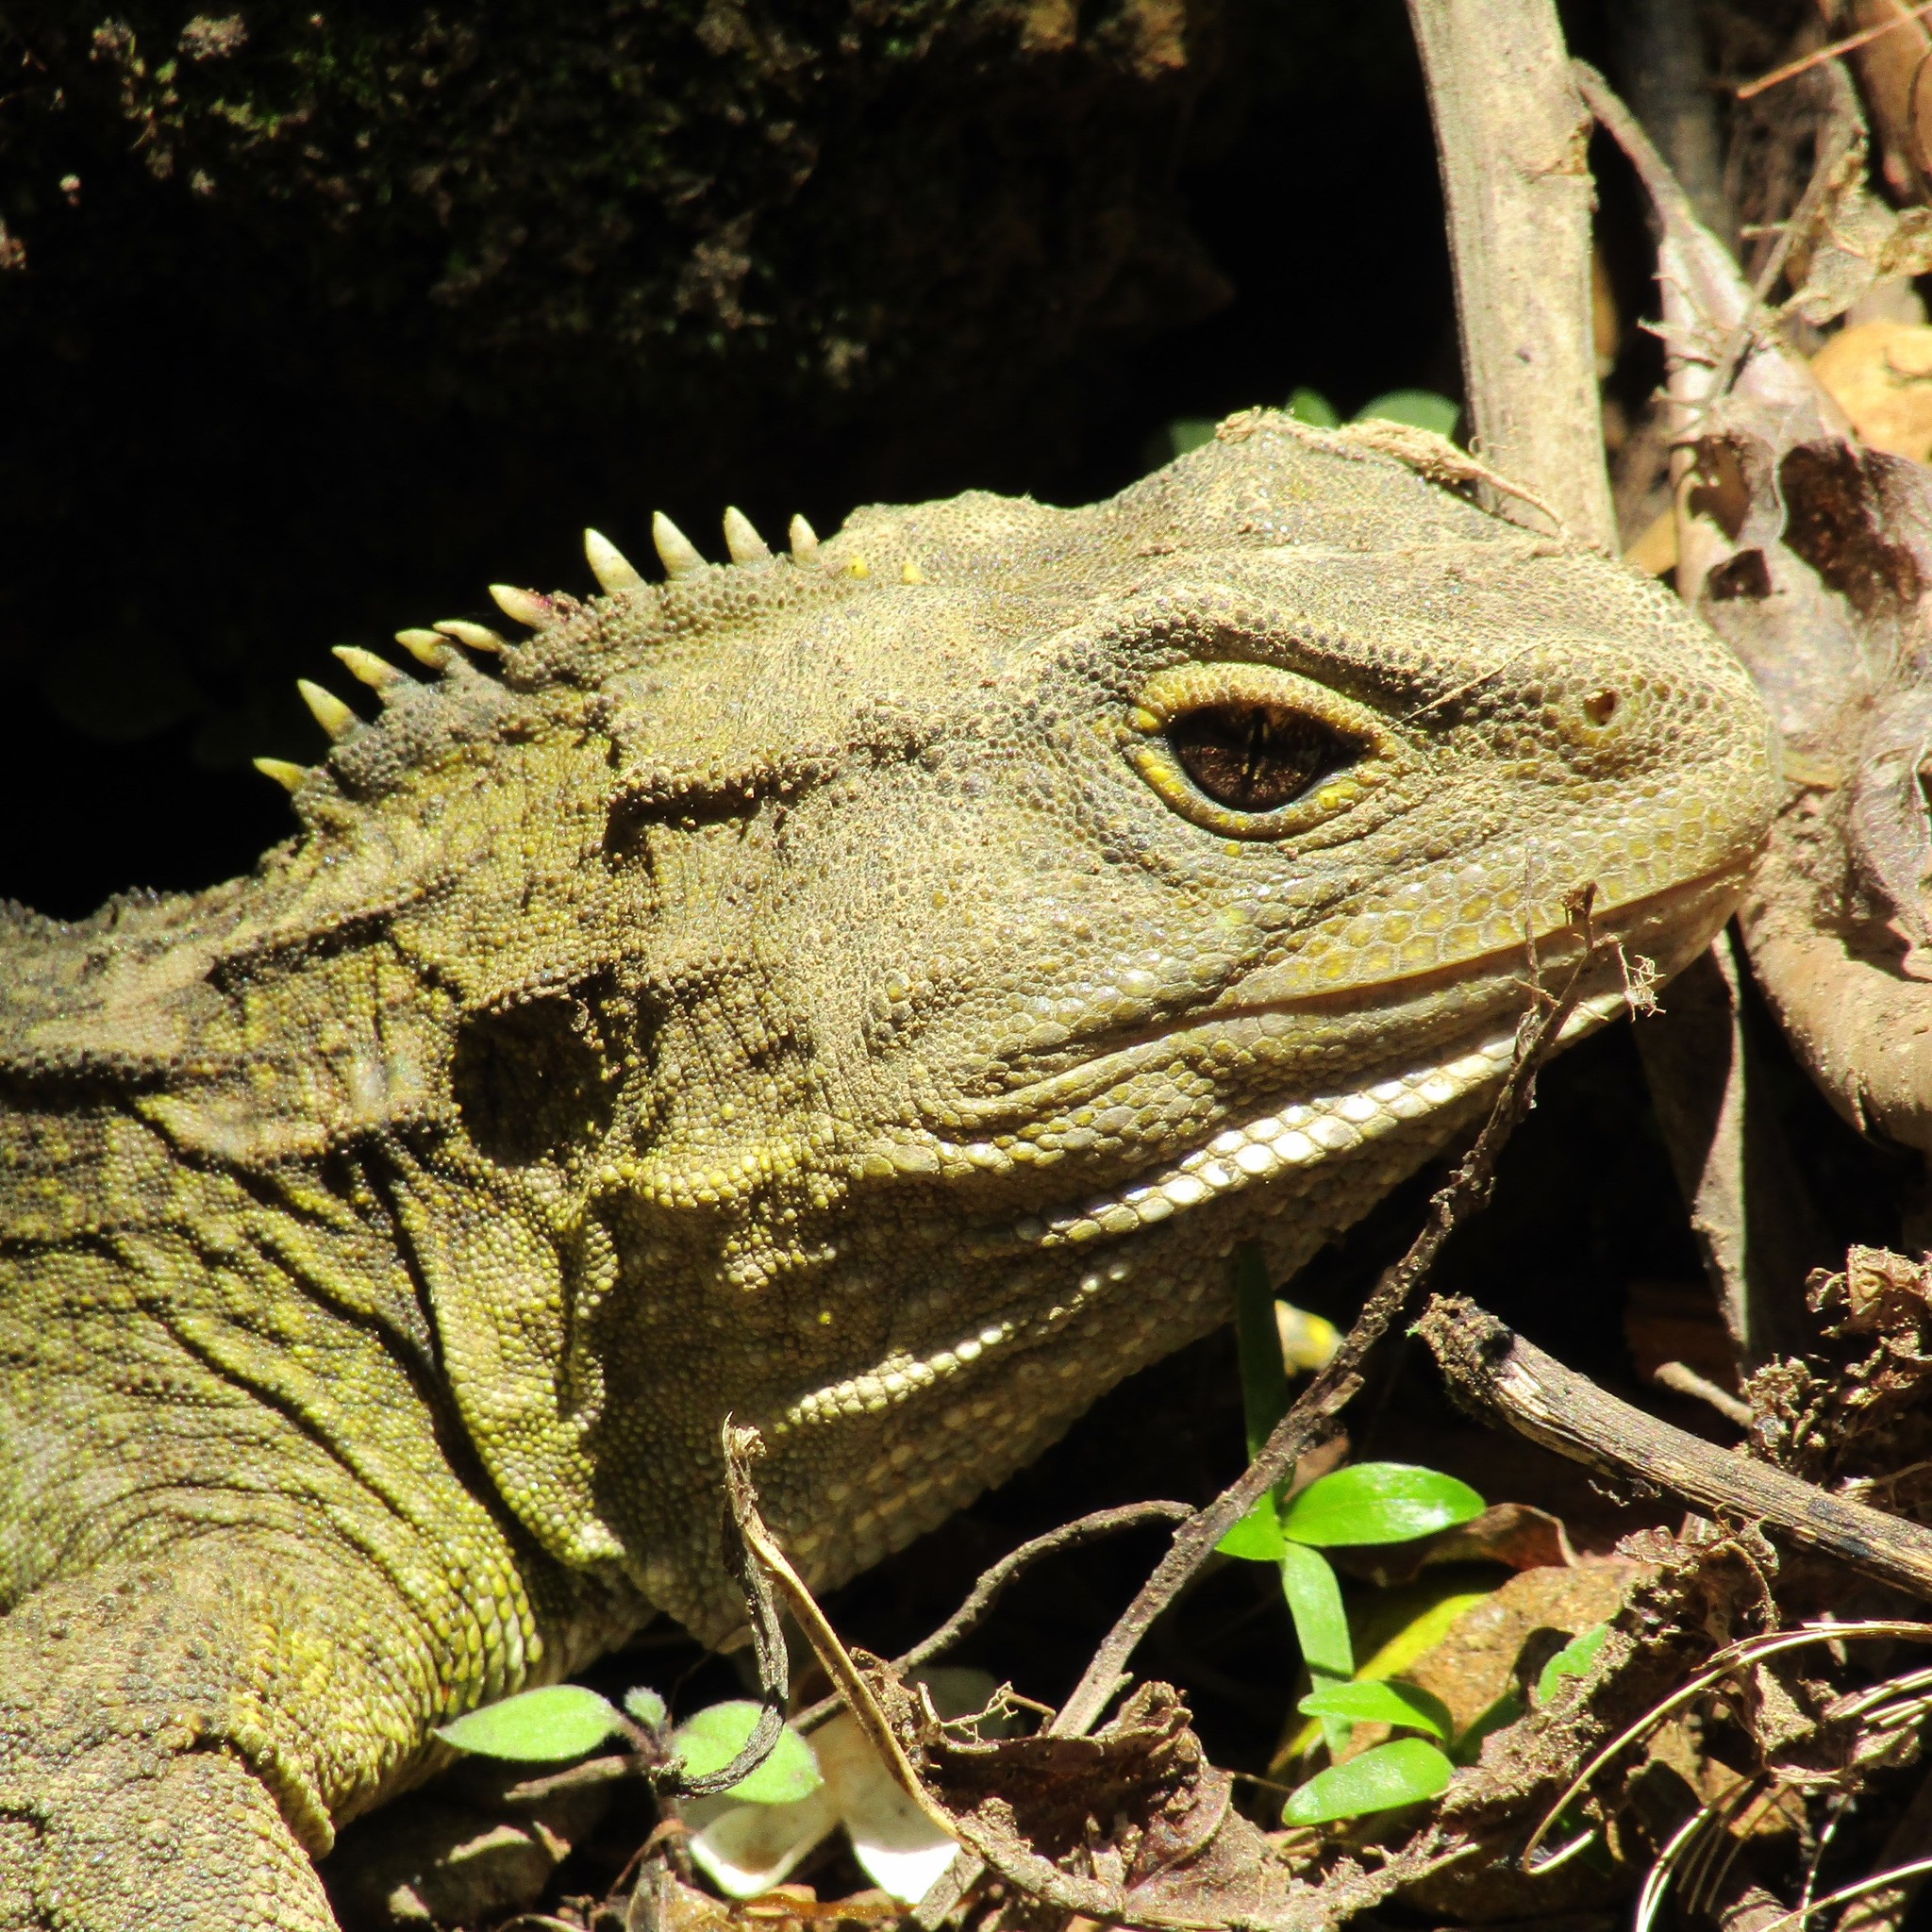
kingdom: Animalia
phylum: Chordata
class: Sphenodontia
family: Sphenodontidae
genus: Sphenodon
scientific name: Sphenodon punctatus
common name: Tuatara
